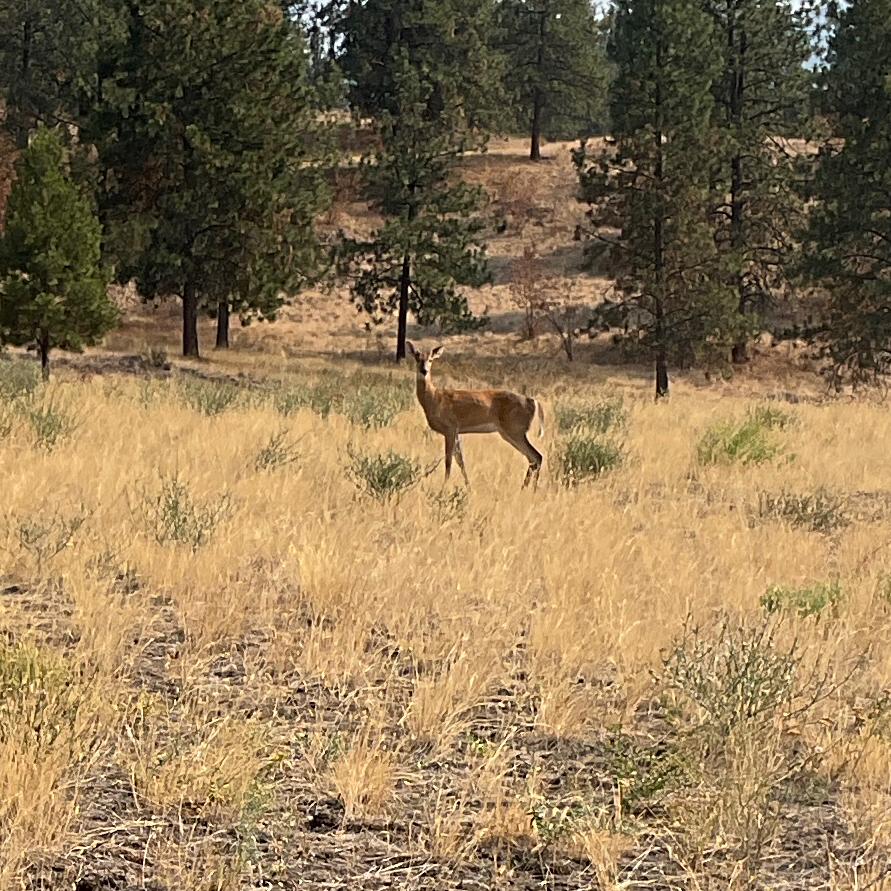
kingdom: Animalia
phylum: Chordata
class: Mammalia
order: Artiodactyla
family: Cervidae
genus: Odocoileus
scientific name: Odocoileus virginianus
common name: White-tailed deer
